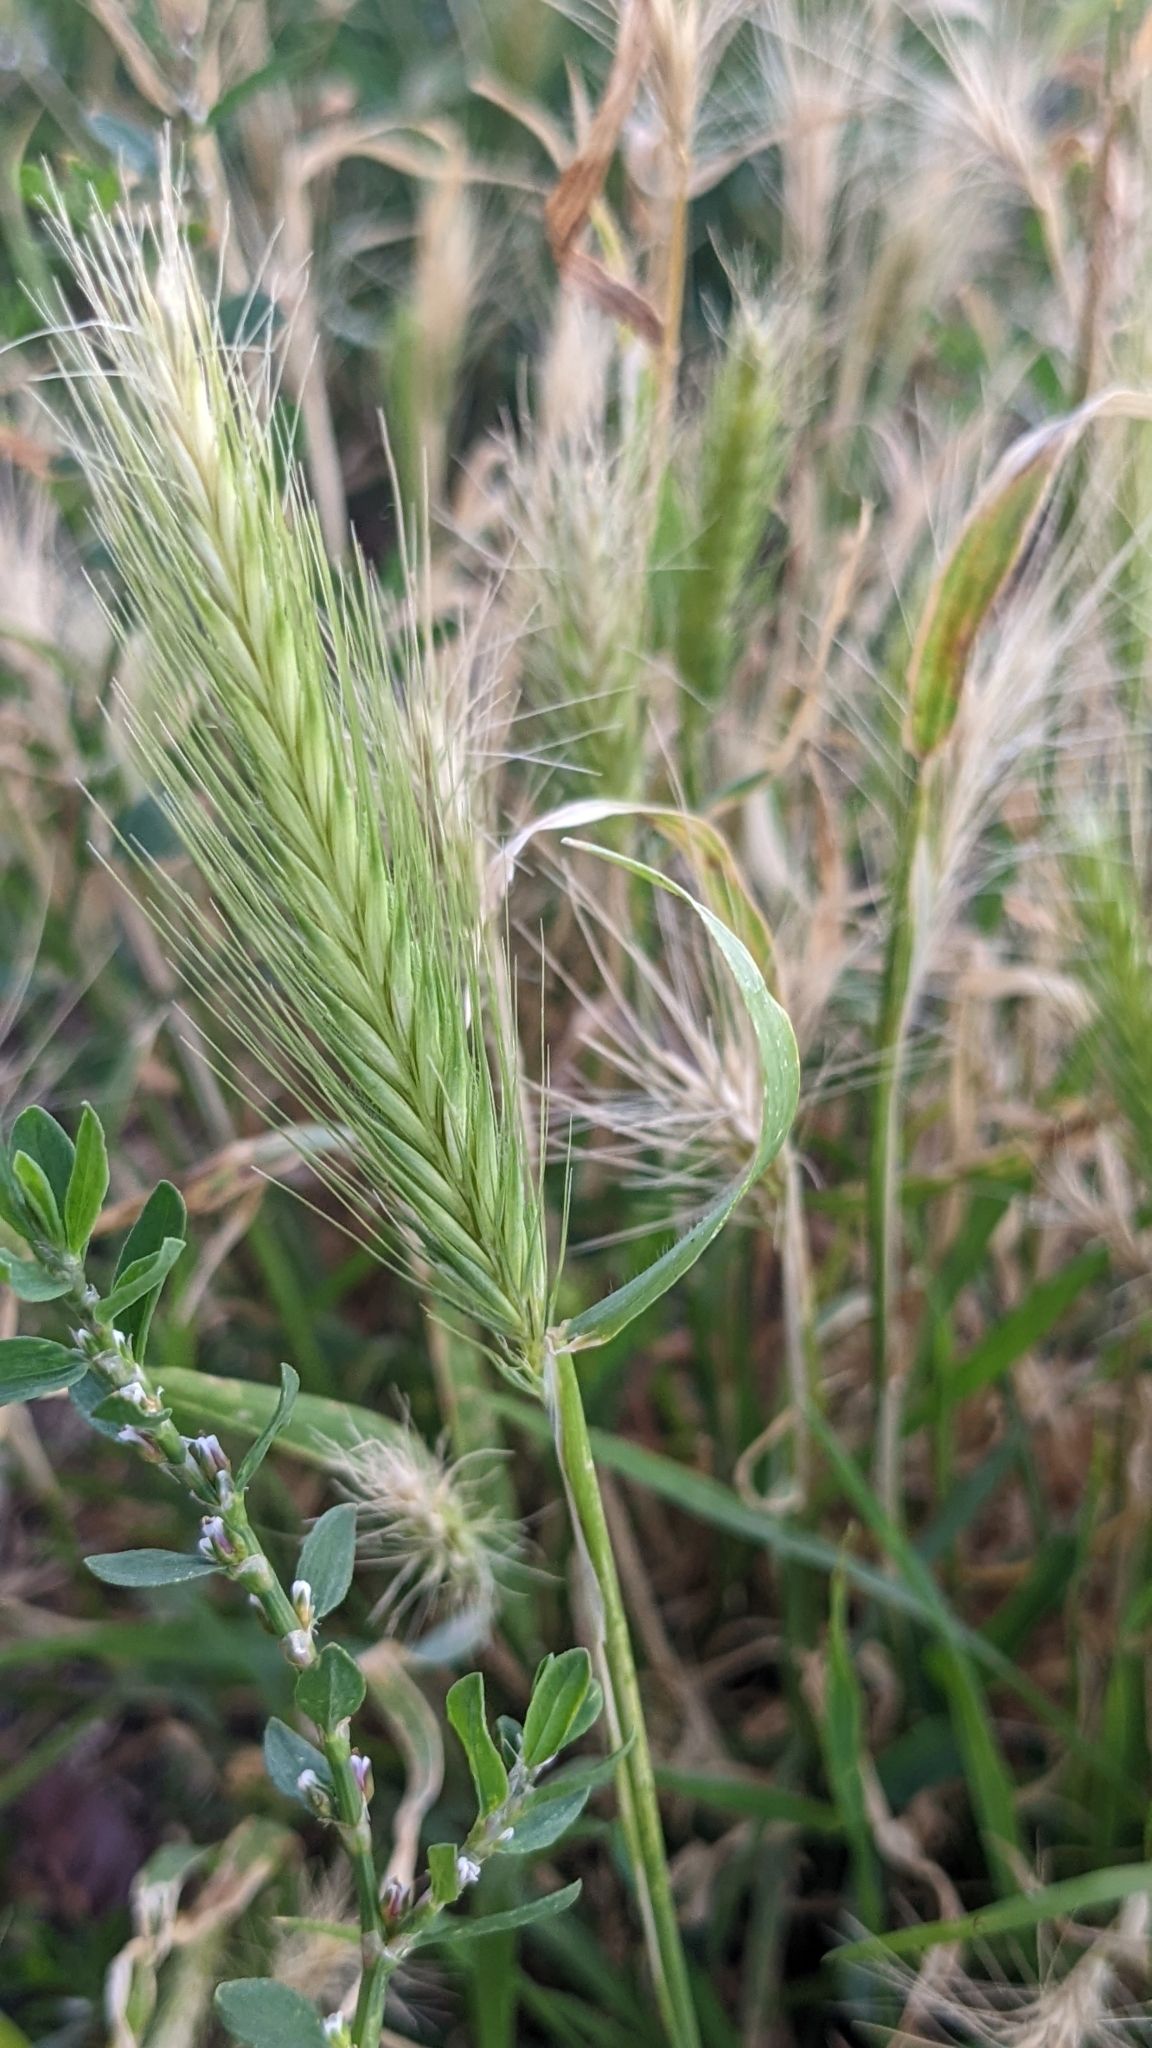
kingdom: Plantae
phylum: Tracheophyta
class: Liliopsida
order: Poales
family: Poaceae
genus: Hordeum
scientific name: Hordeum murinum
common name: Wall barley
